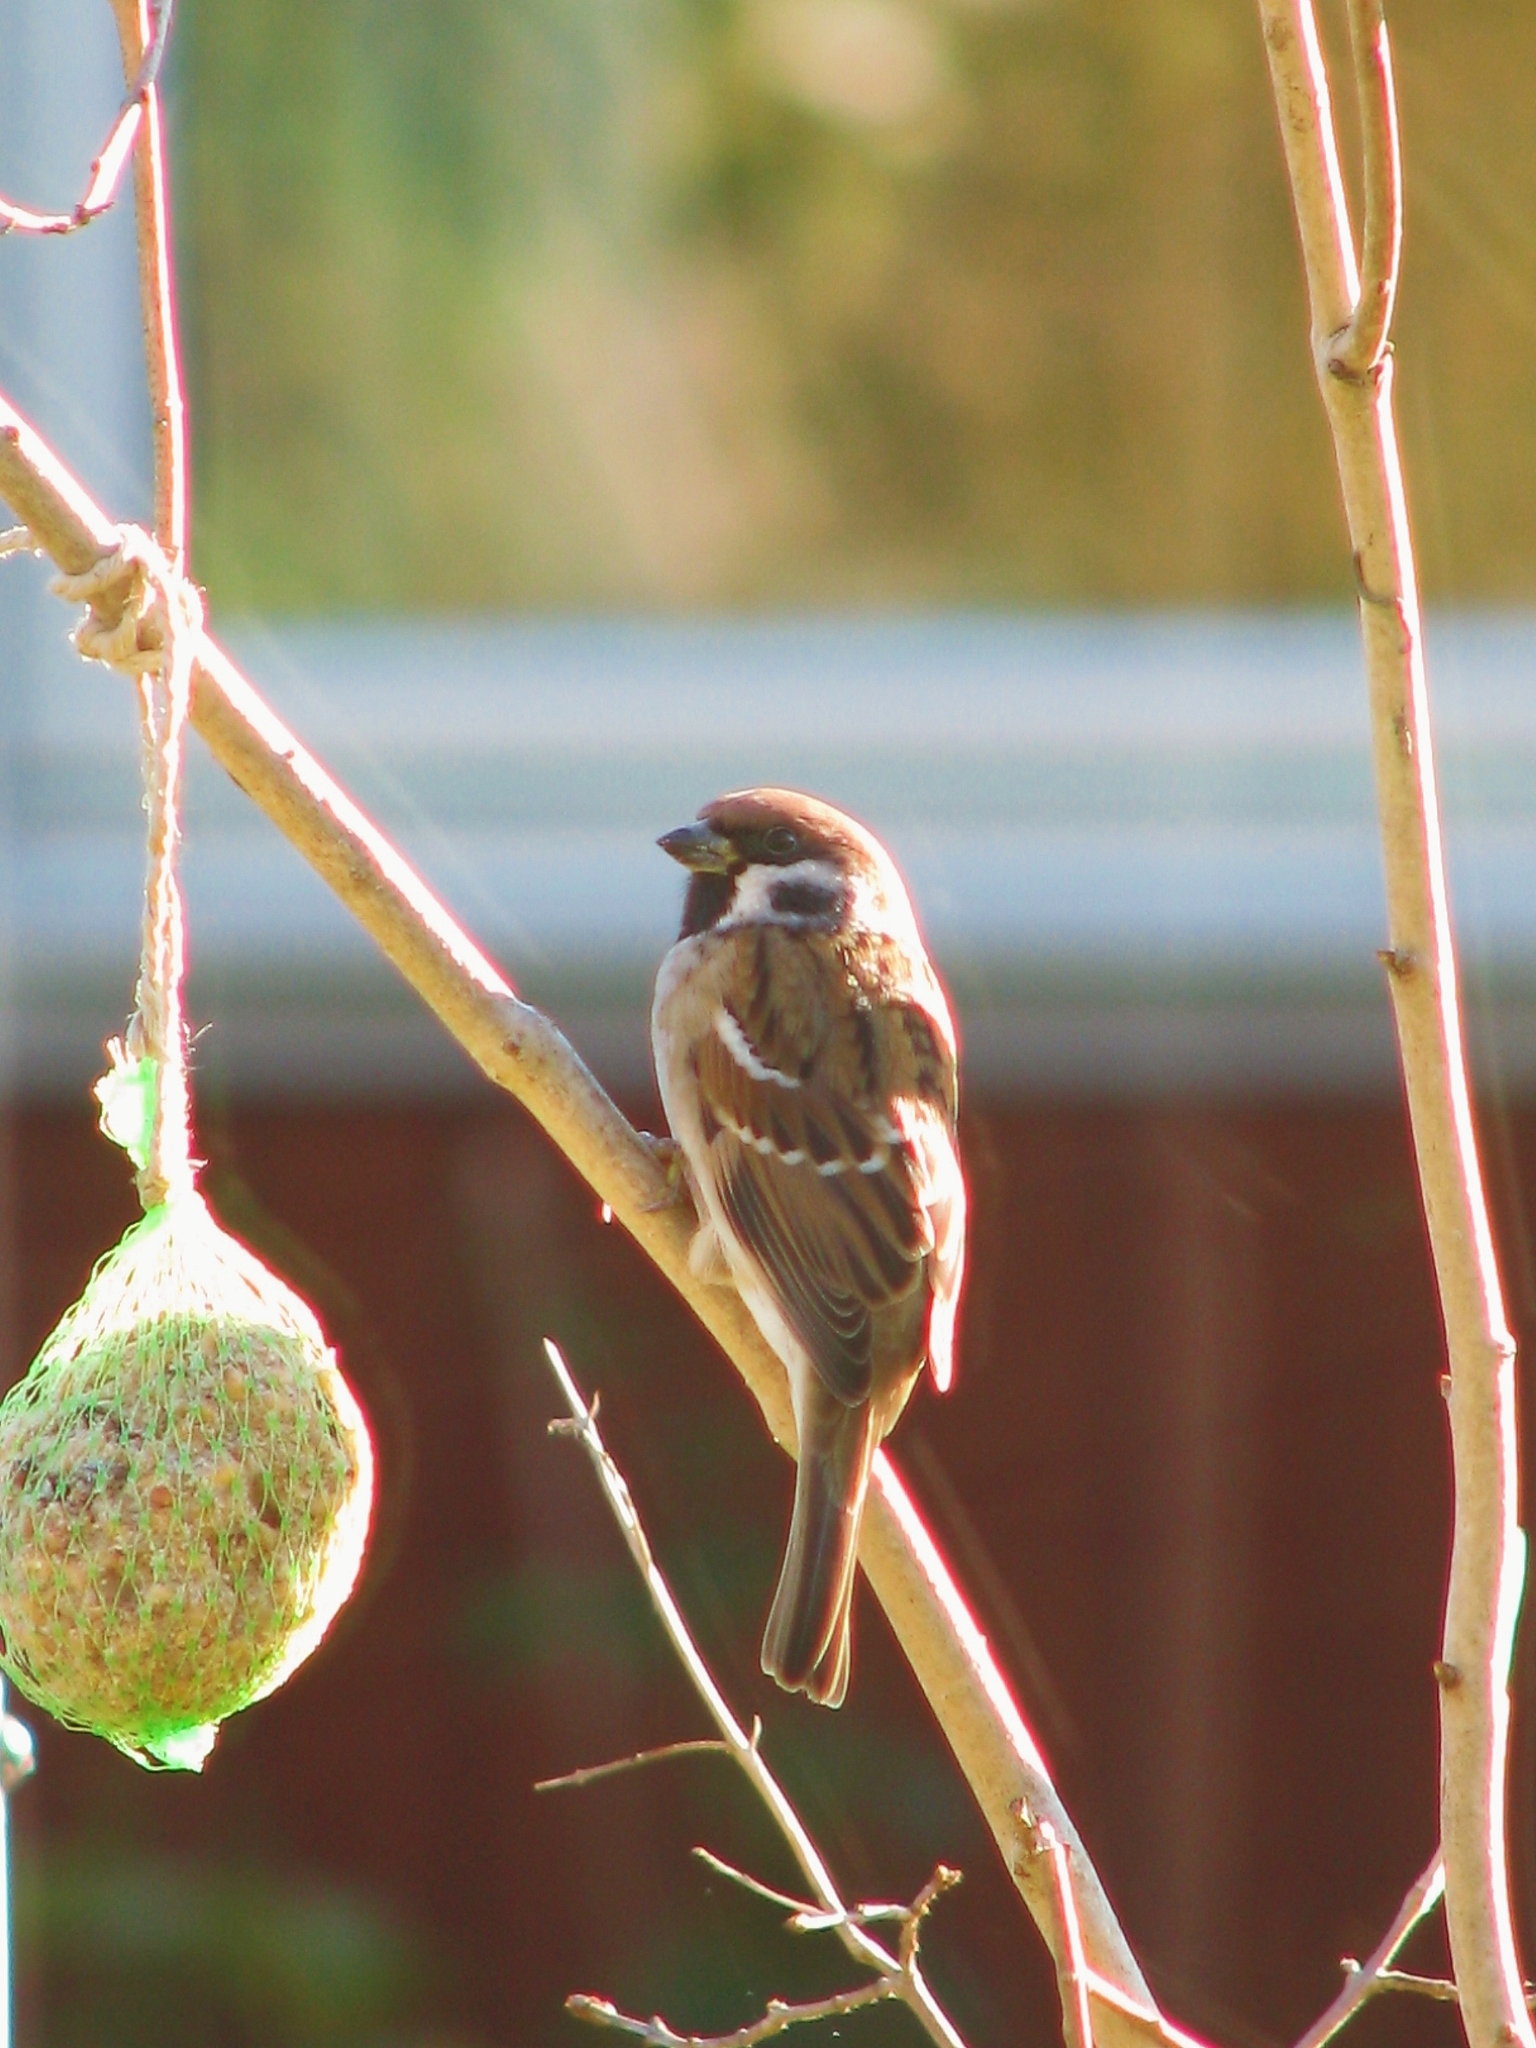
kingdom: Animalia
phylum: Chordata
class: Aves
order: Passeriformes
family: Passeridae
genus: Passer
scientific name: Passer montanus
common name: Eurasian tree sparrow
